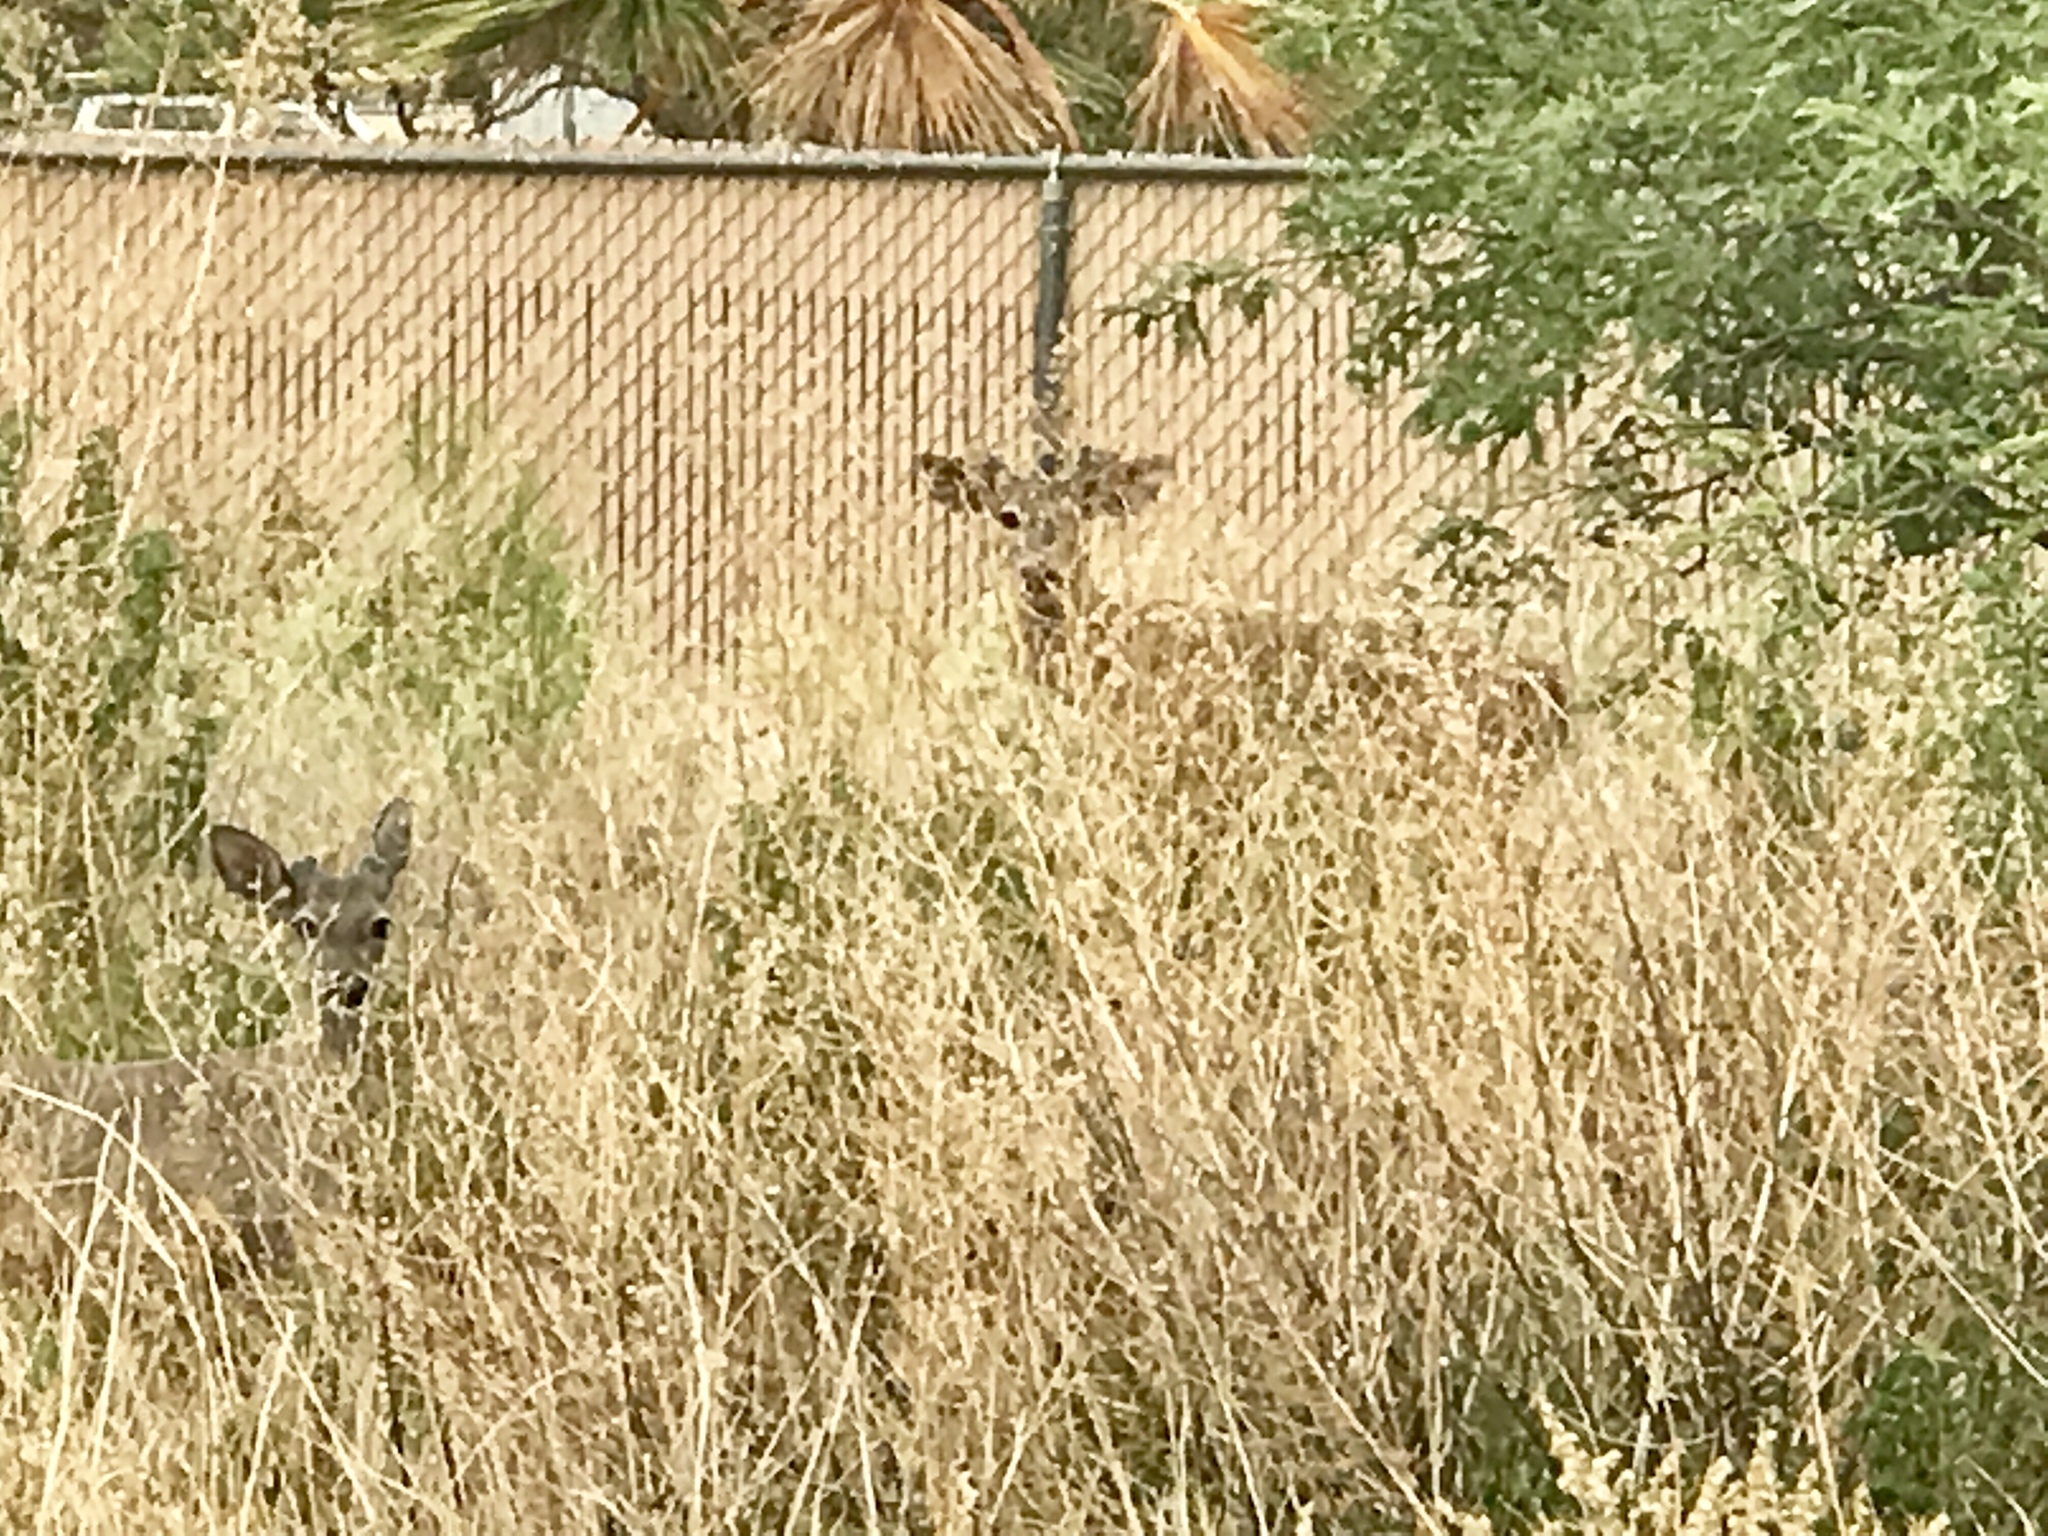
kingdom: Animalia
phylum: Chordata
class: Mammalia
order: Artiodactyla
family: Cervidae
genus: Odocoileus
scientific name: Odocoileus virginianus
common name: White-tailed deer
